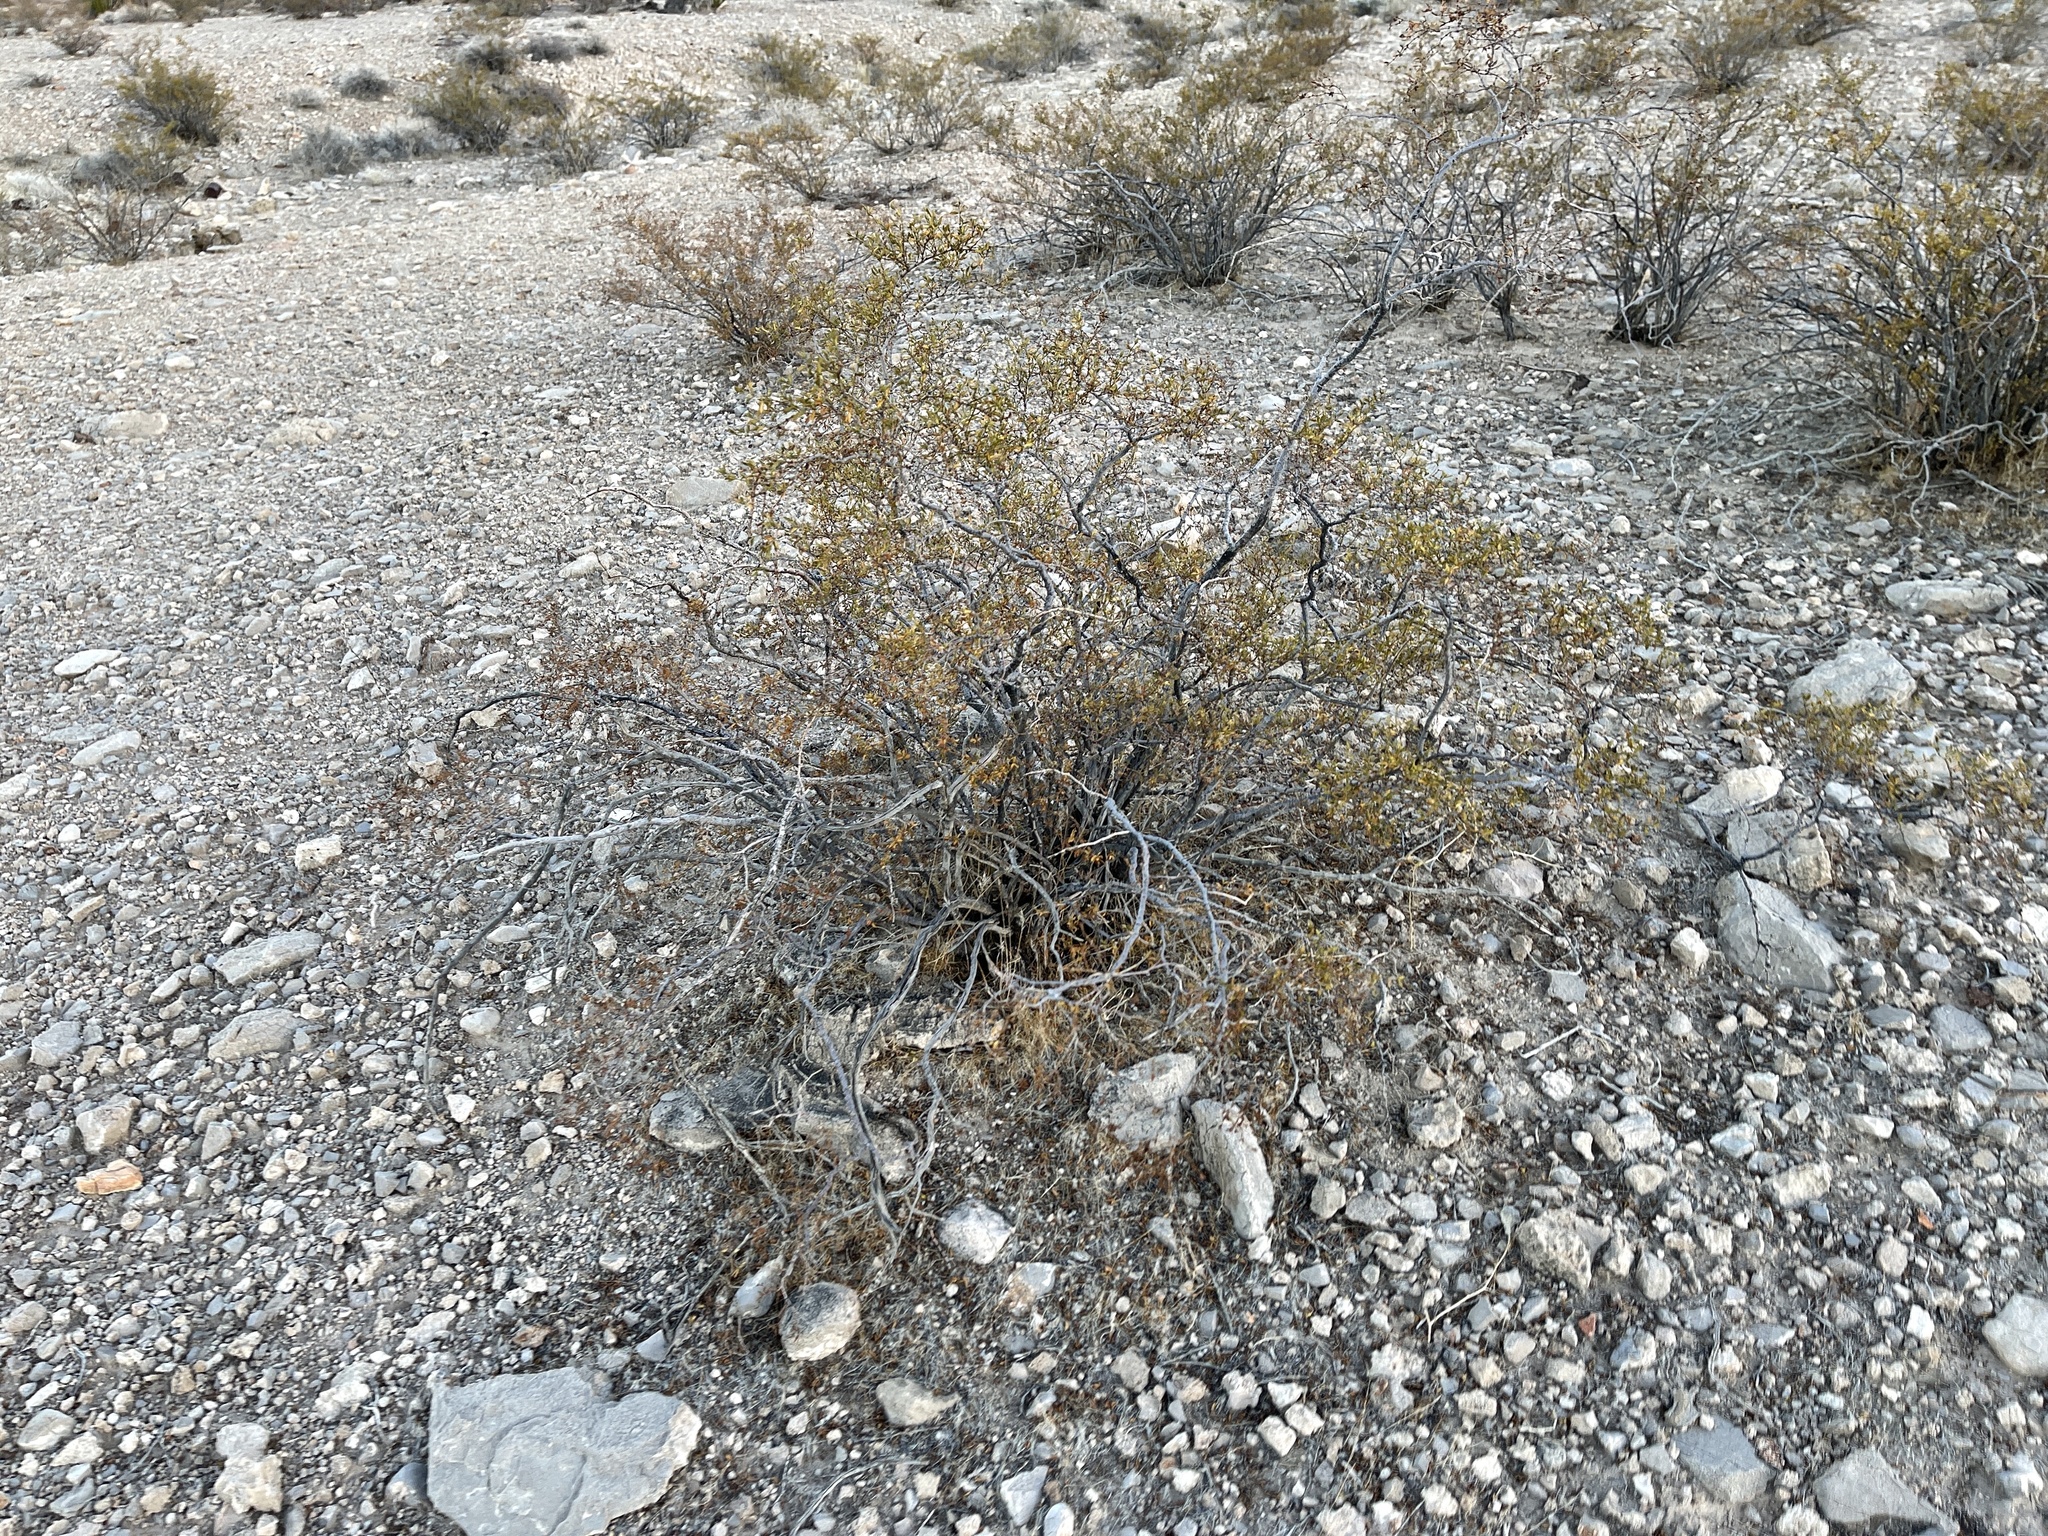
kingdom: Plantae
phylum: Tracheophyta
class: Magnoliopsida
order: Zygophyllales
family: Zygophyllaceae
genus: Larrea
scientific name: Larrea tridentata
